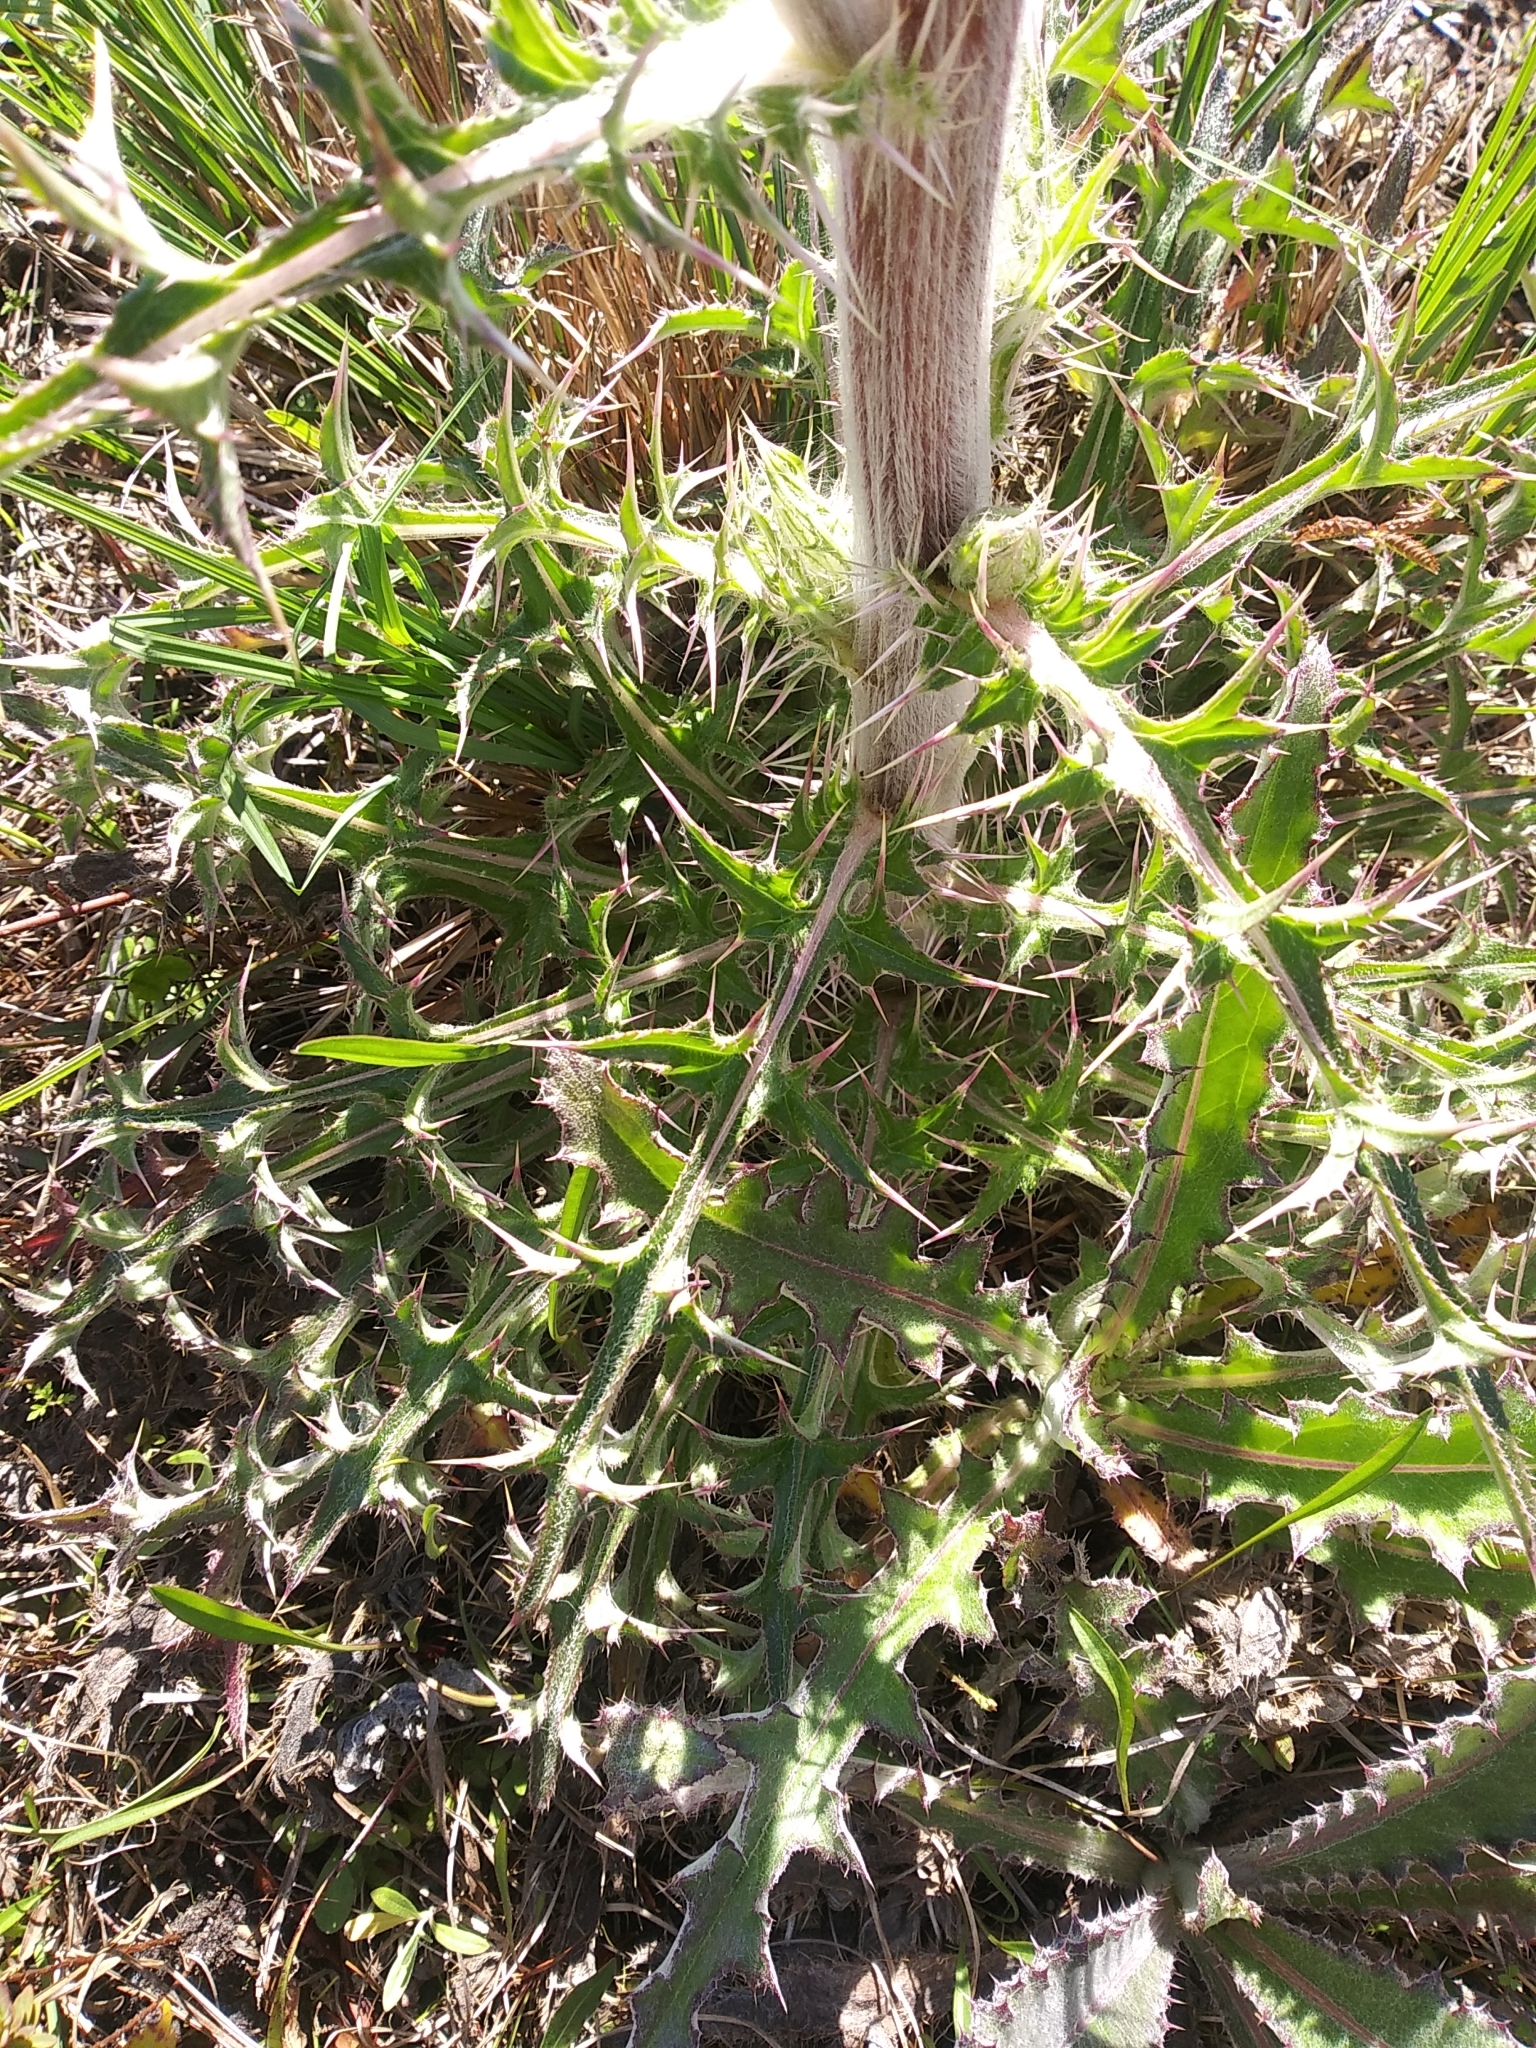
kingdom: Plantae
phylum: Tracheophyta
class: Magnoliopsida
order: Asterales
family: Asteraceae
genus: Cirsium
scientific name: Cirsium horridulum
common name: Bristly thistle
